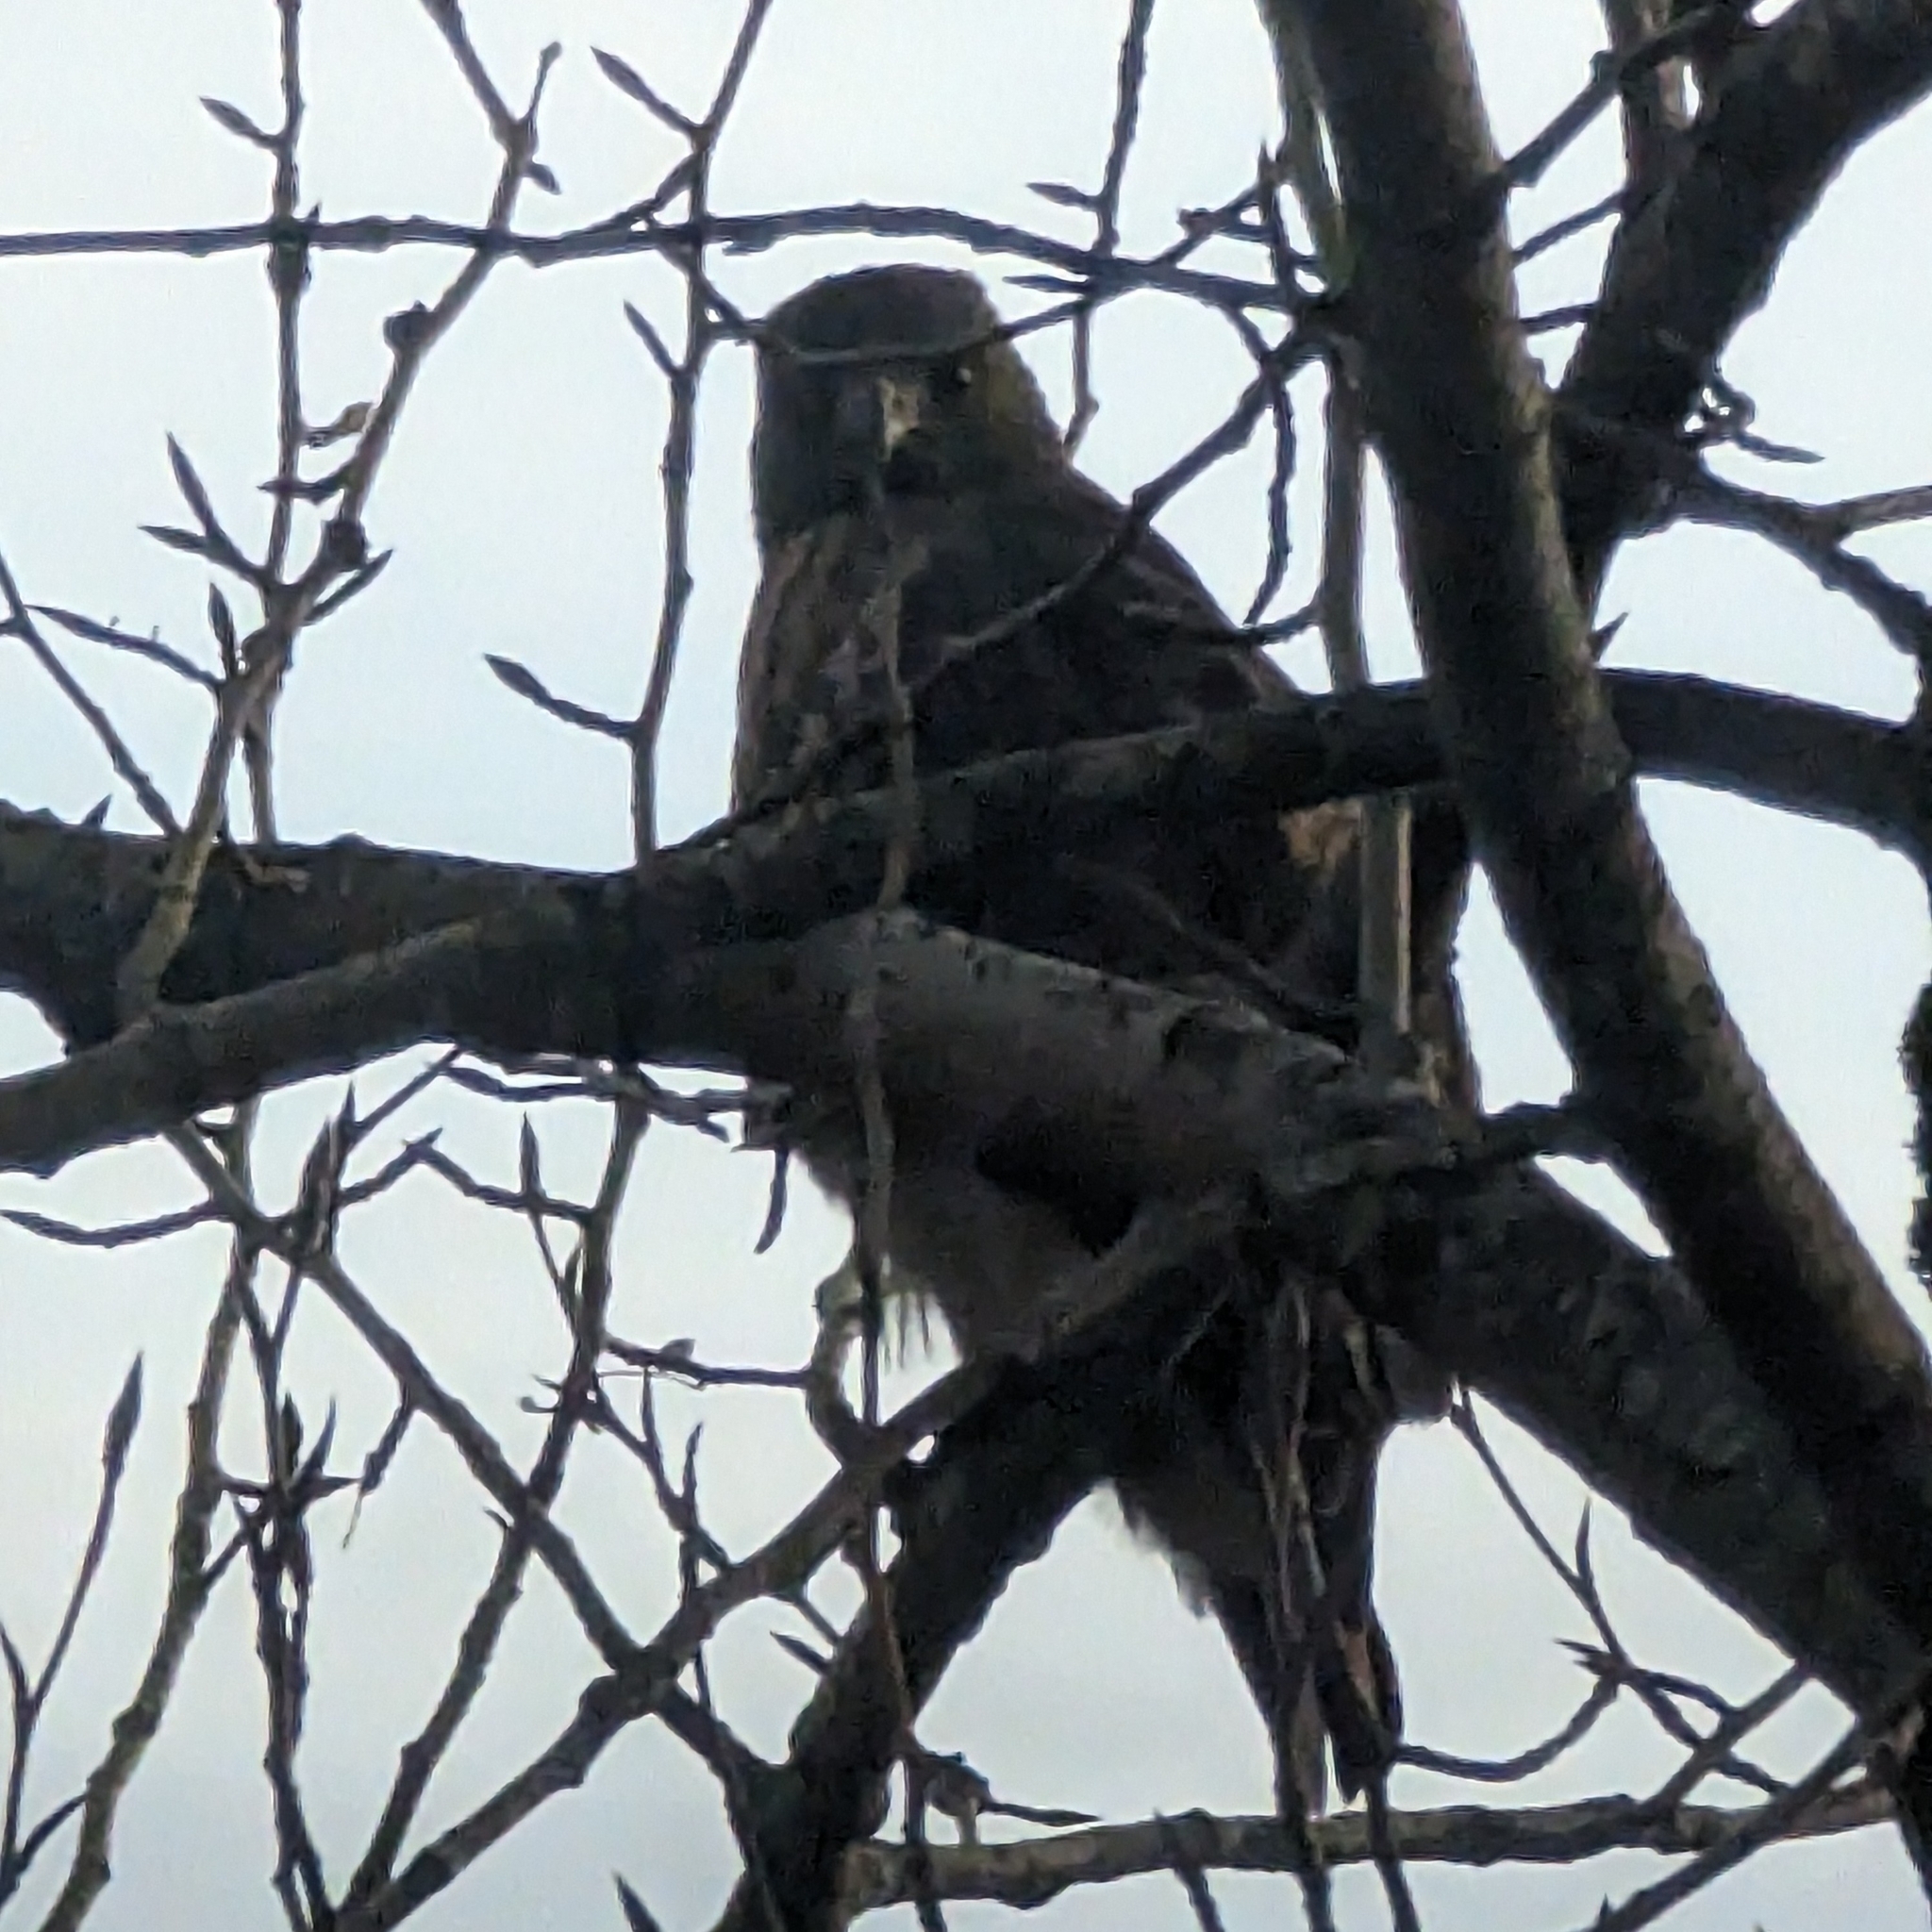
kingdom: Animalia
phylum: Chordata
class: Aves
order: Accipitriformes
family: Accipitridae
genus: Buteo
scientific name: Buteo jamaicensis
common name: Red-tailed hawk
